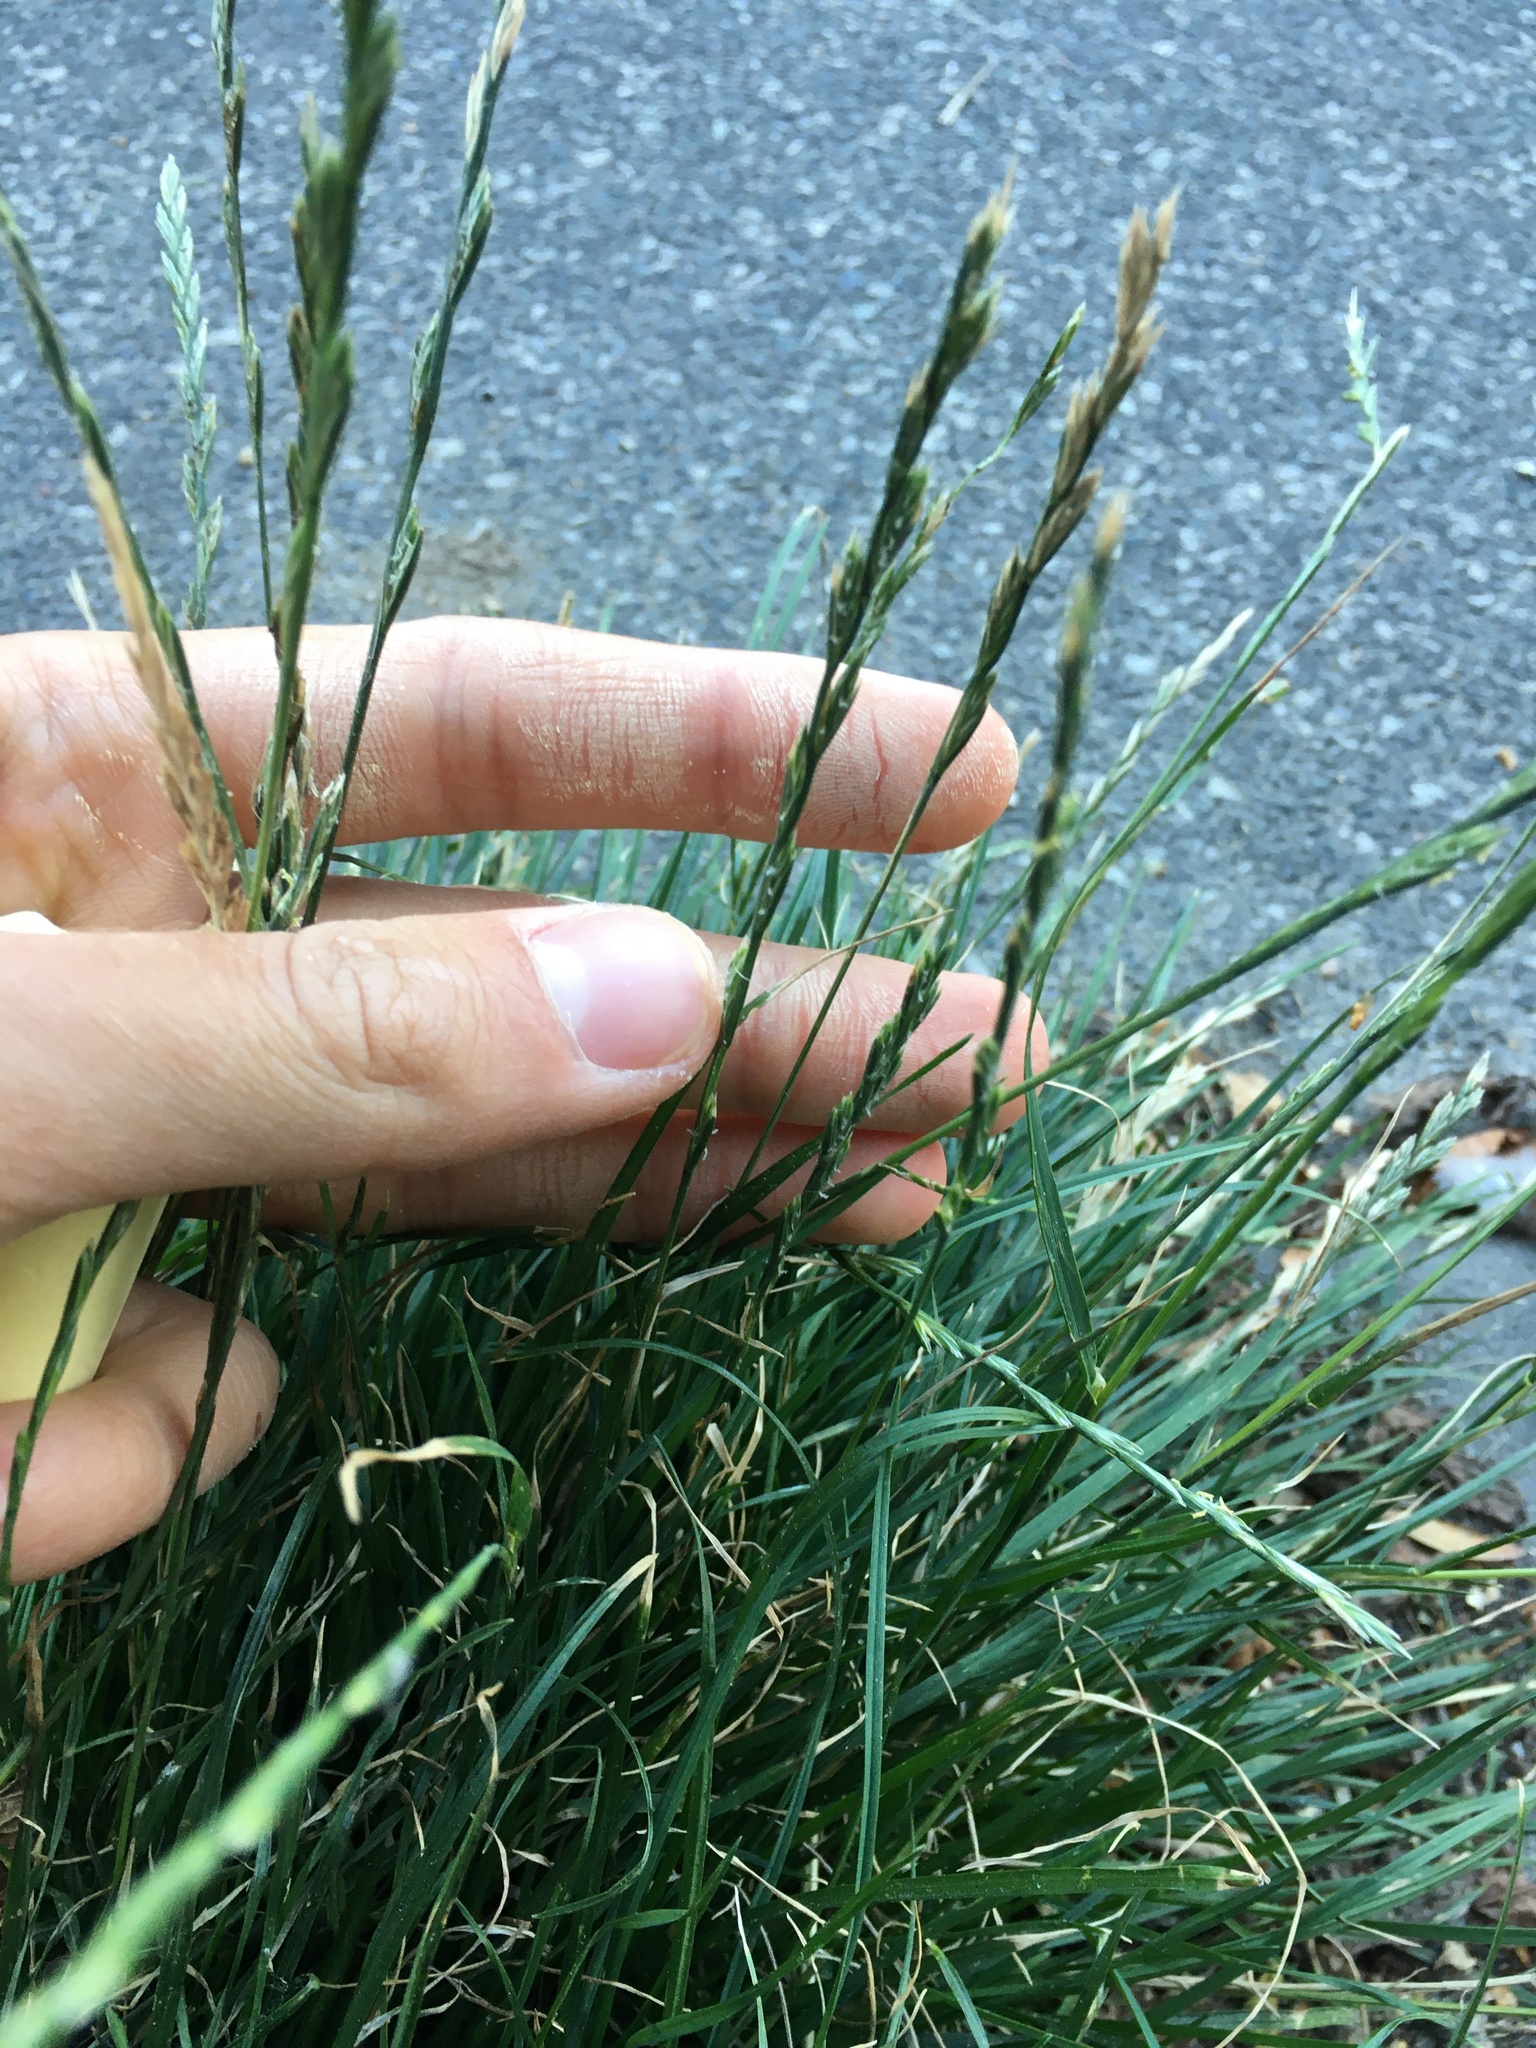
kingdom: Plantae
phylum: Tracheophyta
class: Liliopsida
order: Poales
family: Poaceae
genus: Lolium
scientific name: Lolium perenne
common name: Perennial ryegrass
